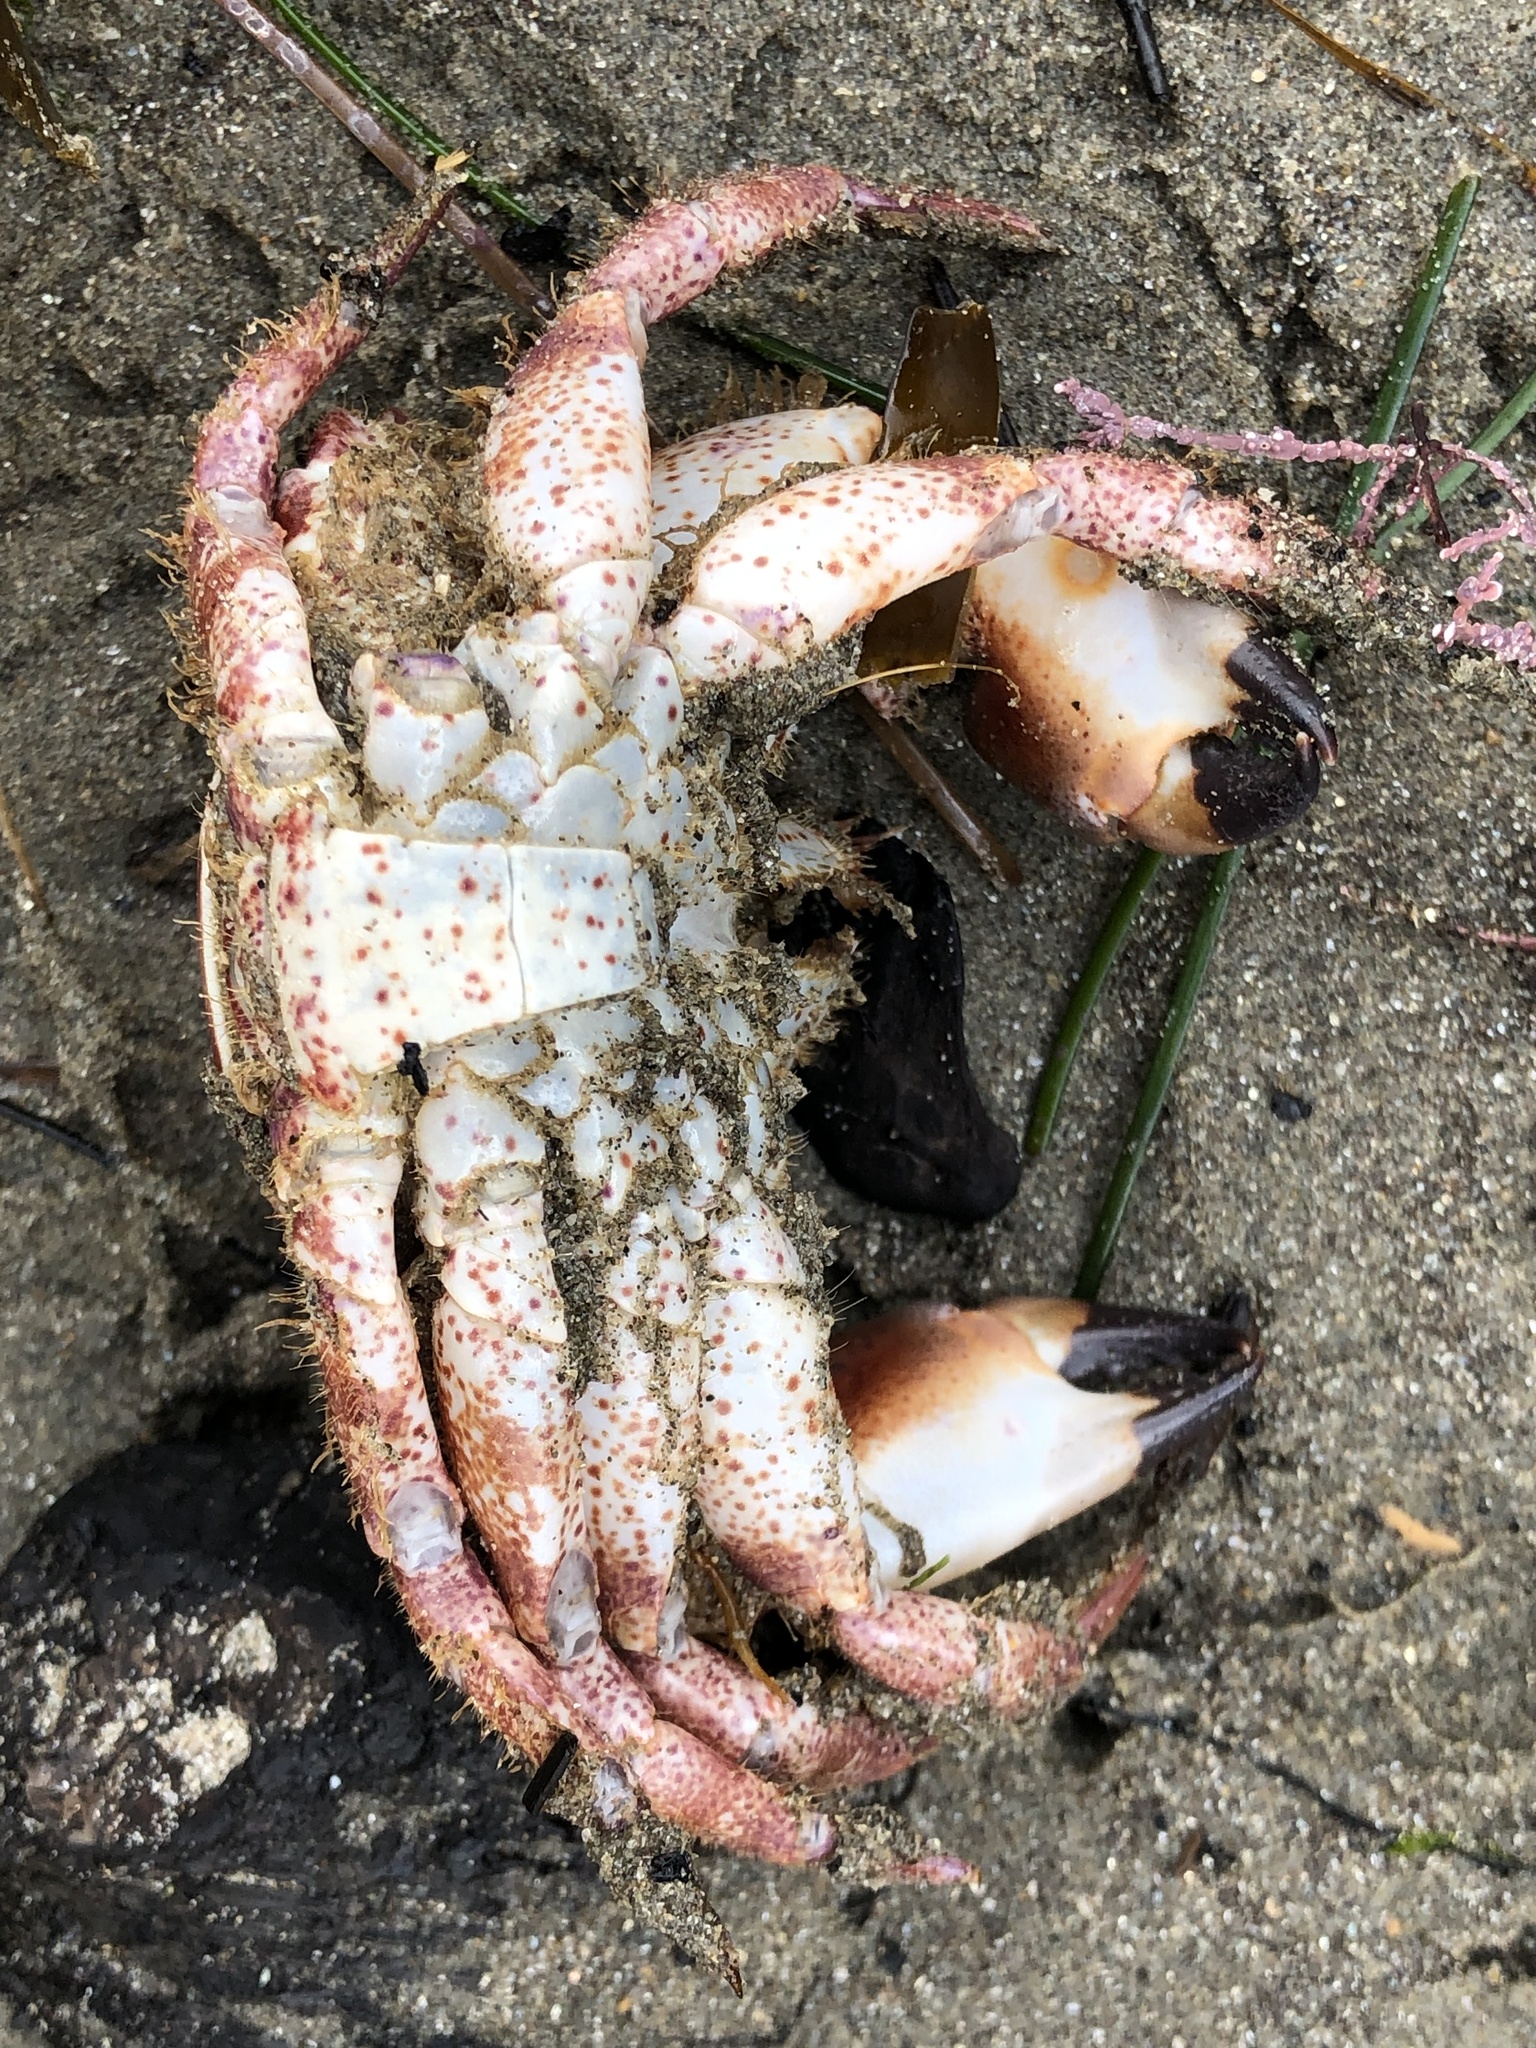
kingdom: Animalia
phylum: Arthropoda
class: Malacostraca
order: Decapoda
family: Cancridae
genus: Romaleon
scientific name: Romaleon antennarium
